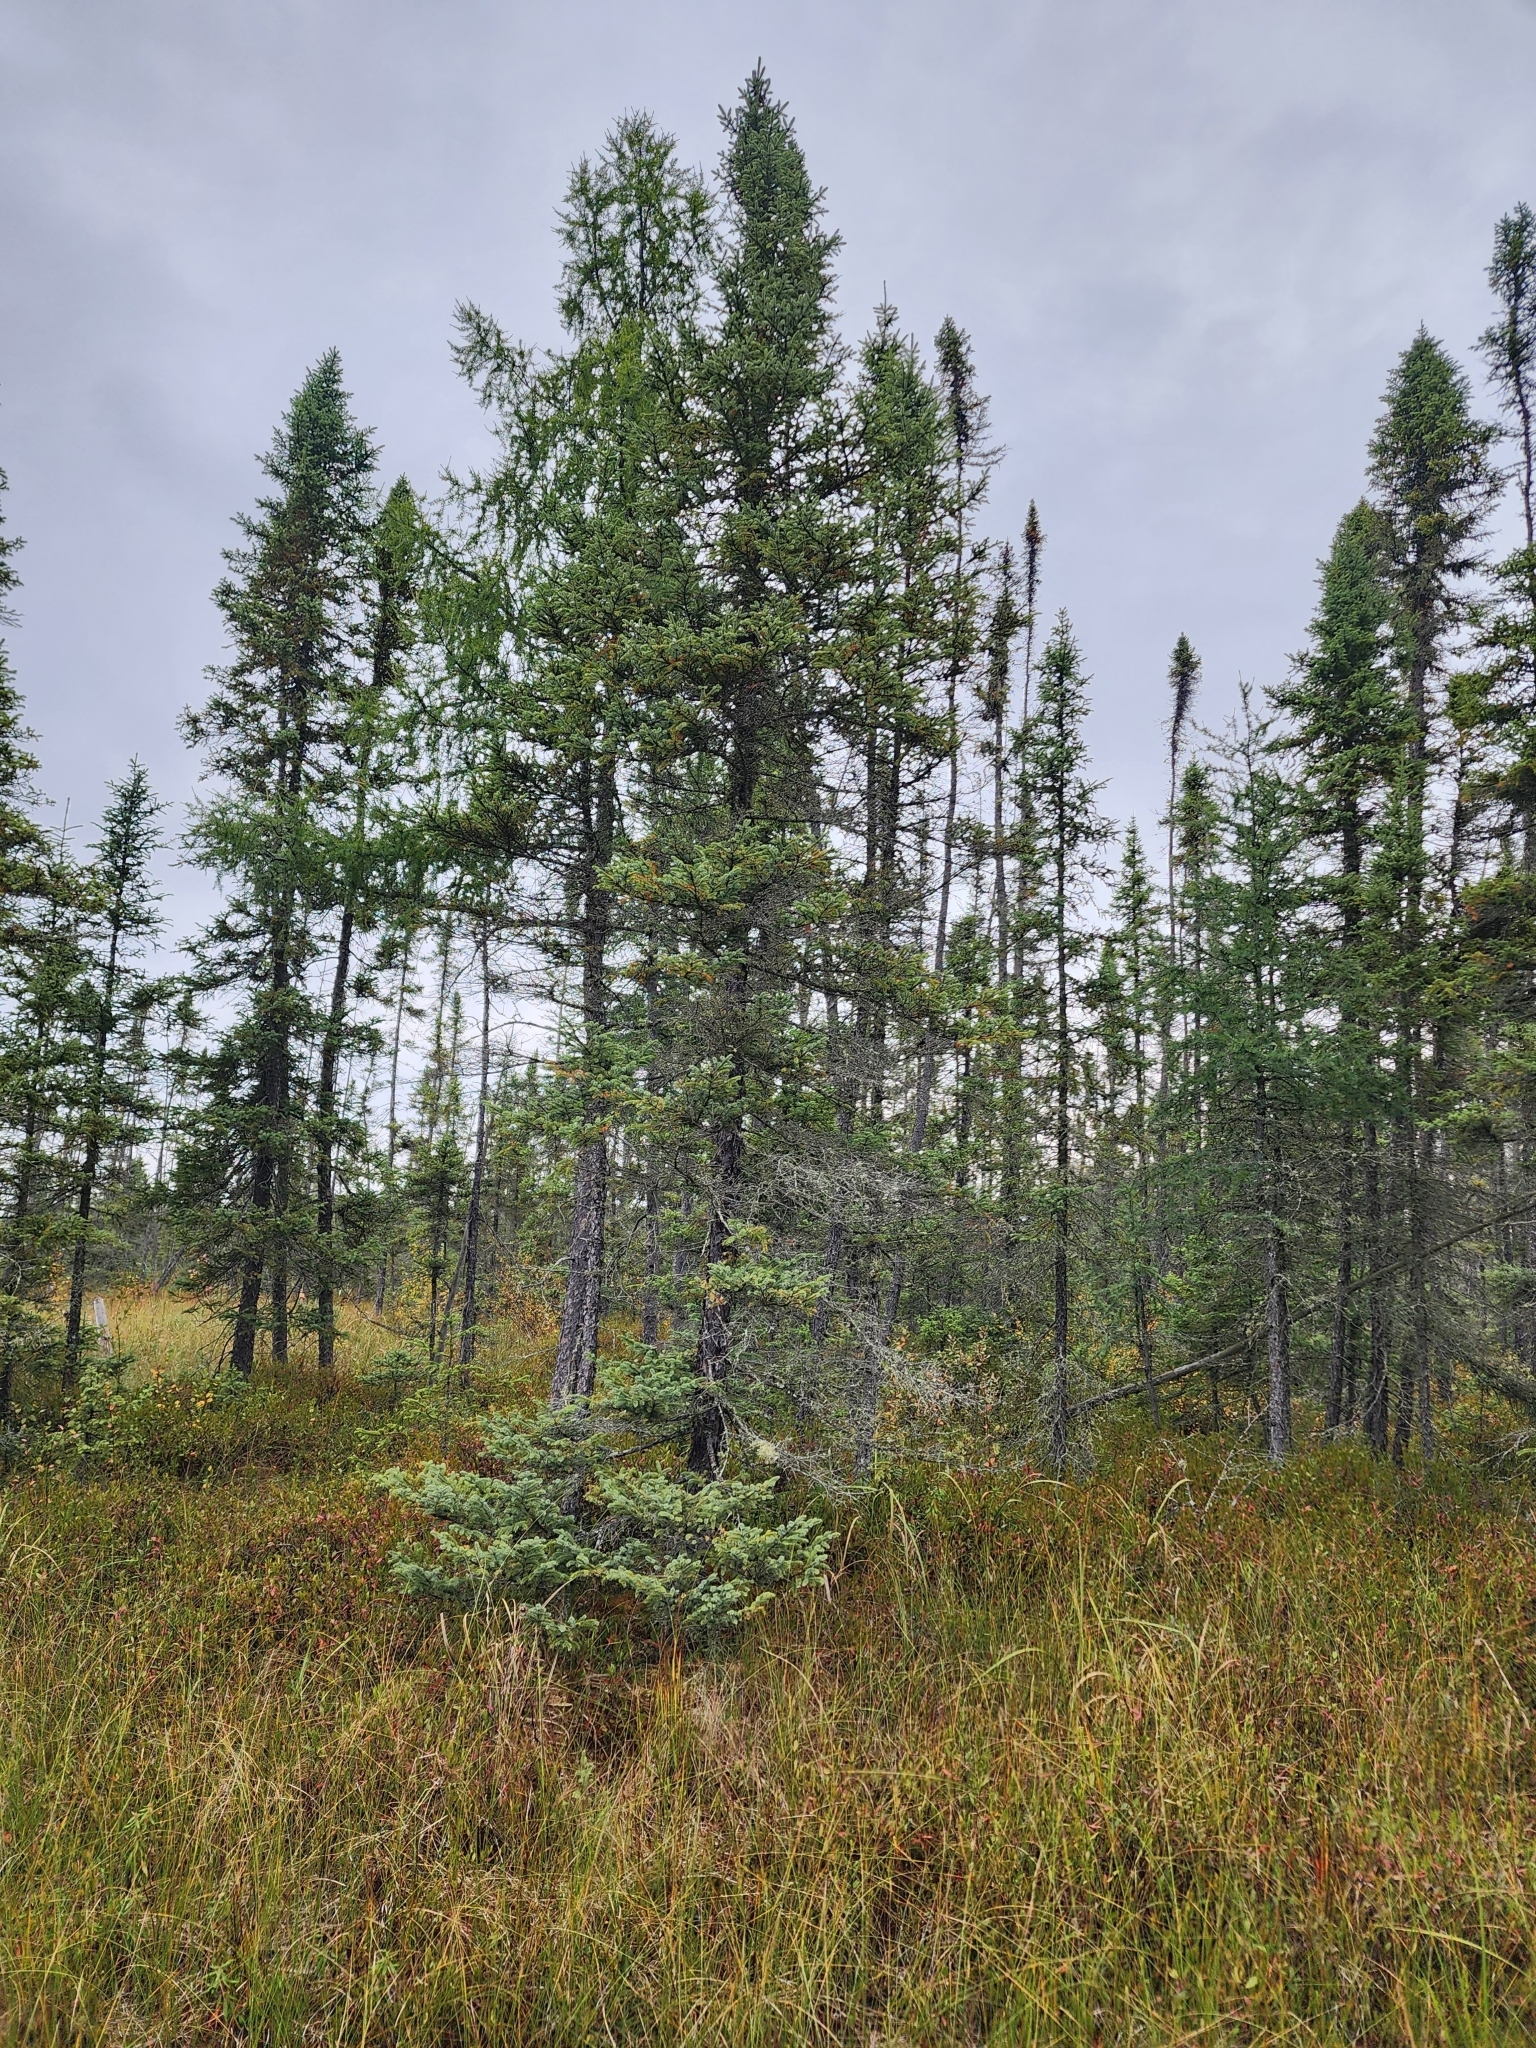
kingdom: Plantae
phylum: Tracheophyta
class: Pinopsida
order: Pinales
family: Pinaceae
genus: Picea
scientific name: Picea mariana
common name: Black spruce
